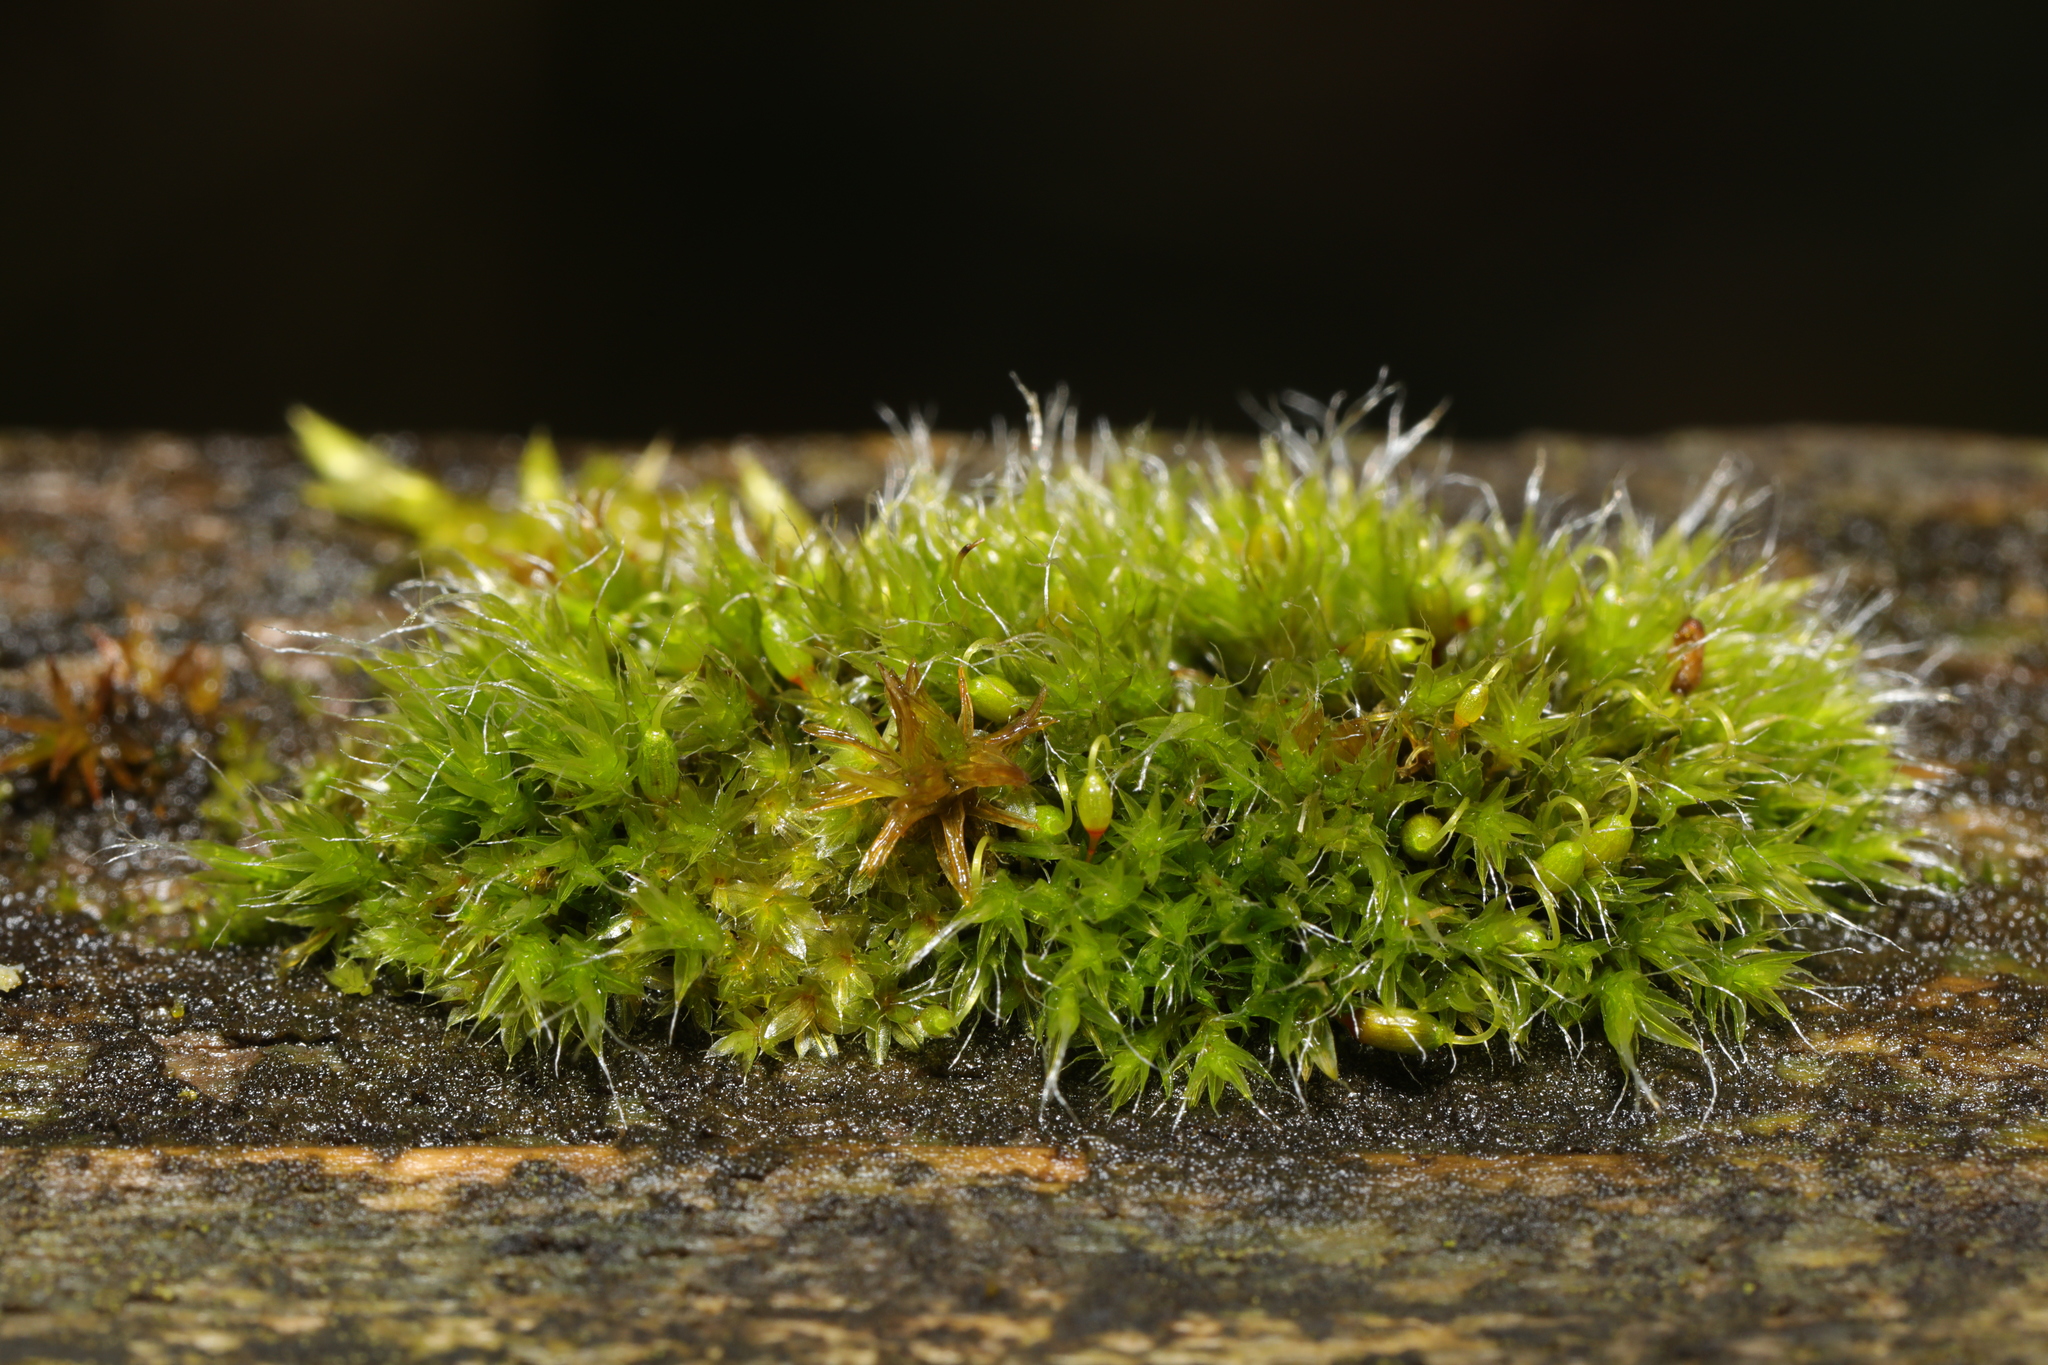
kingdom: Plantae
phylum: Bryophyta
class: Bryopsida
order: Grimmiales
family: Grimmiaceae
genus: Grimmia
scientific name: Grimmia pulvinata
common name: Grey-cushioned grimmia
